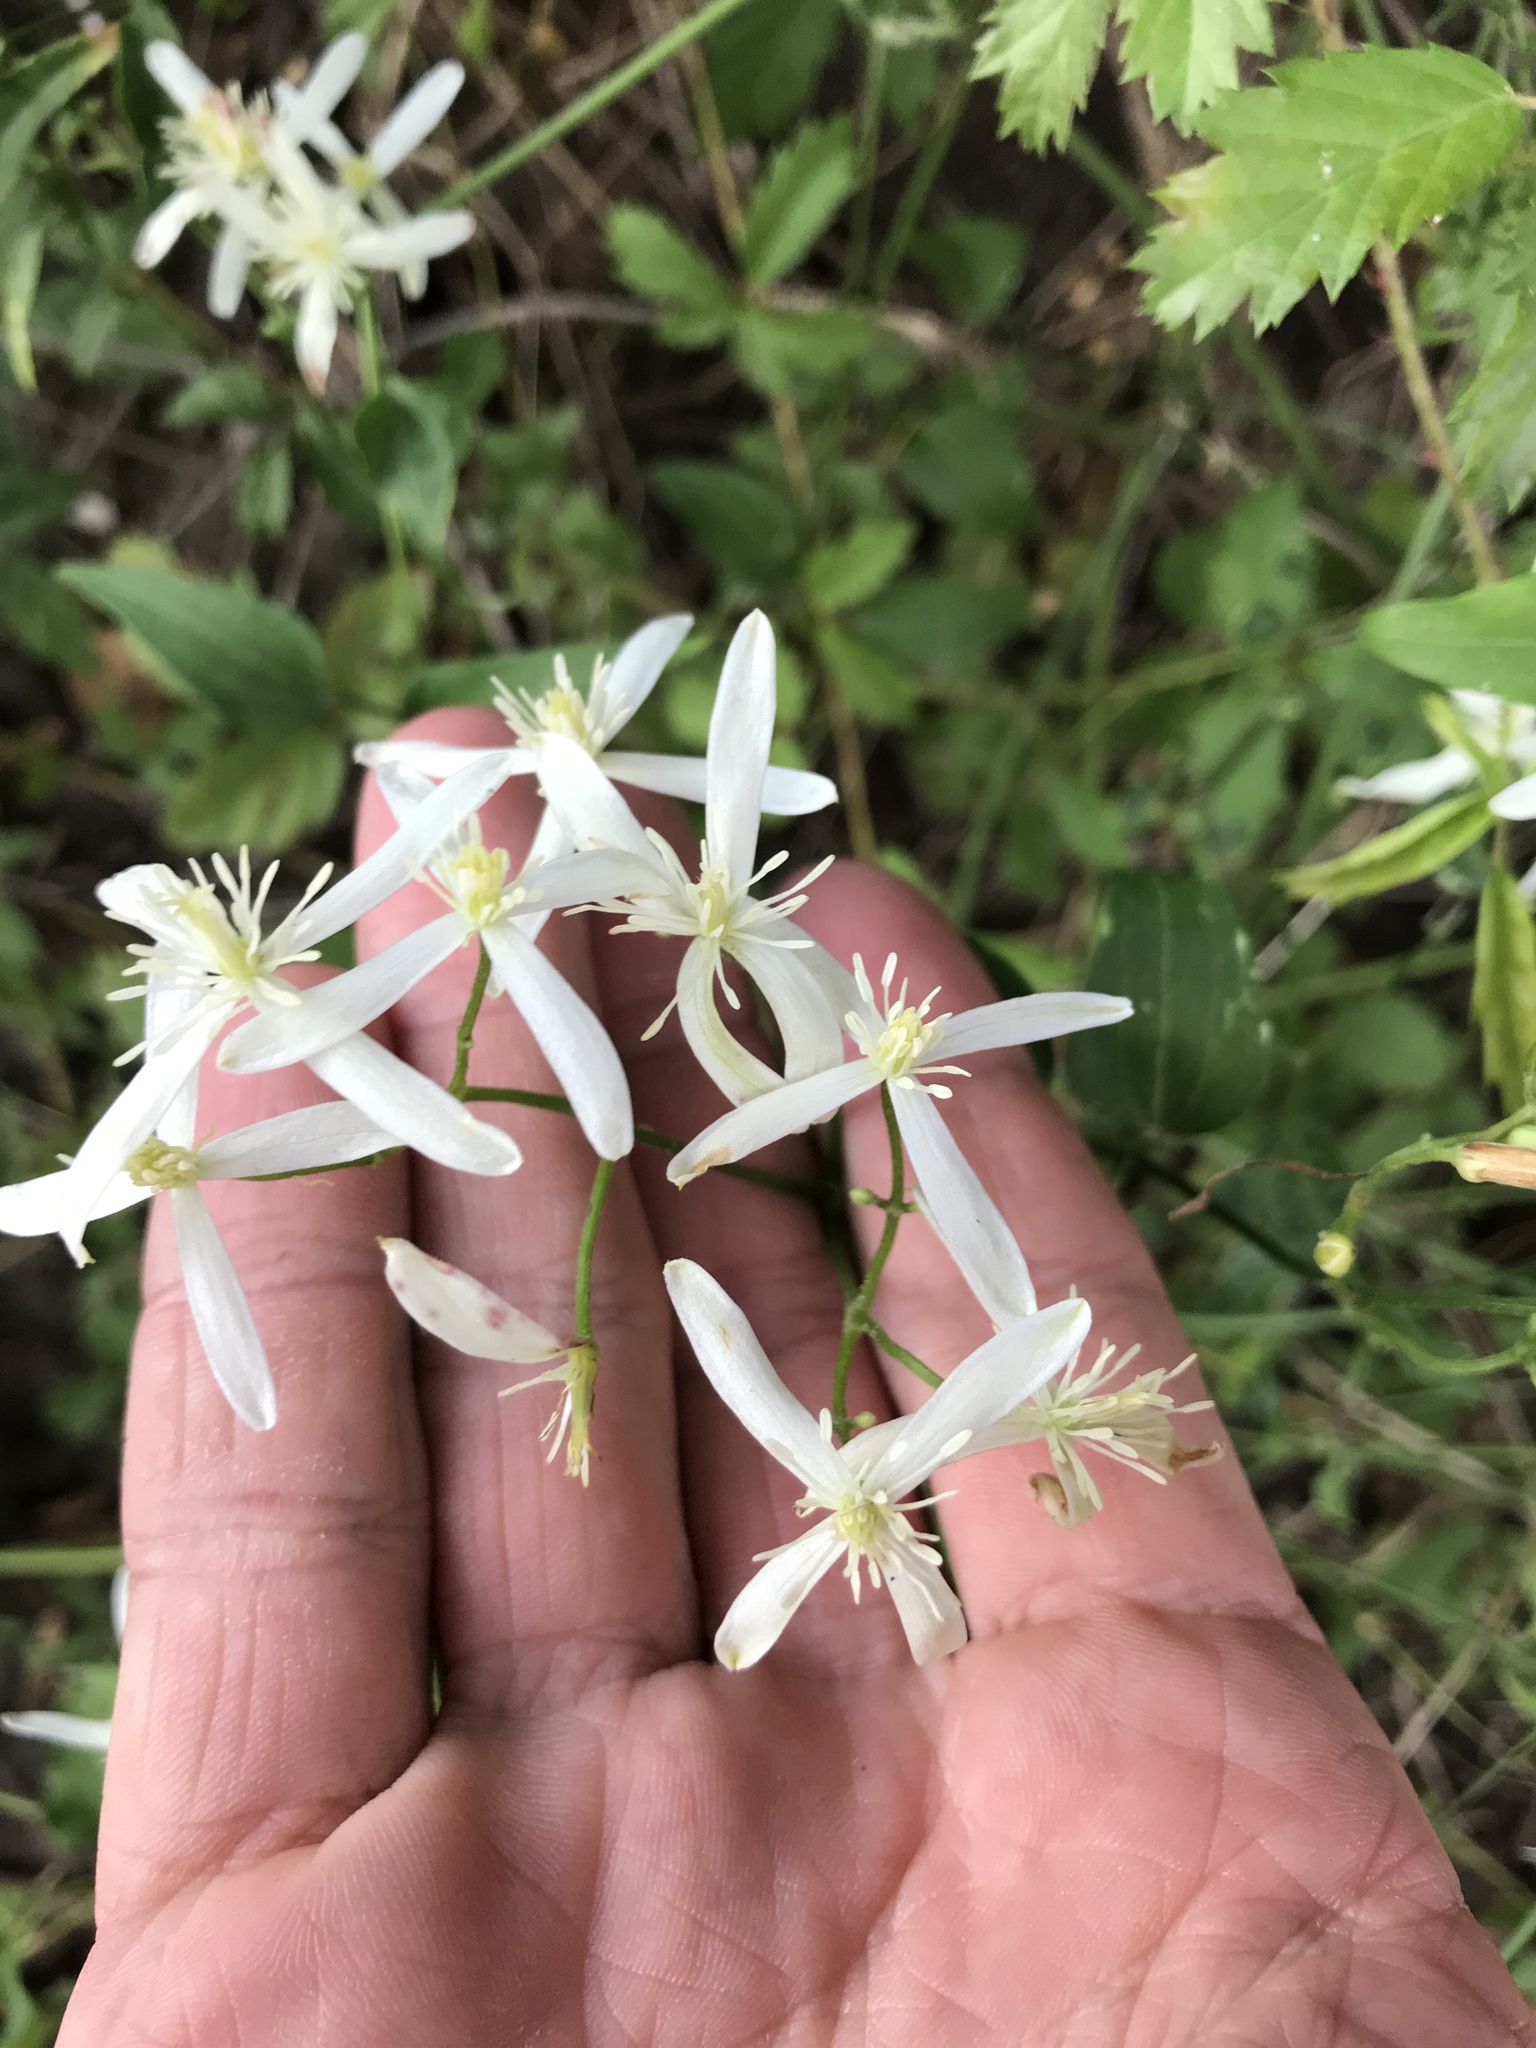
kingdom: Plantae
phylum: Tracheophyta
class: Magnoliopsida
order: Ranunculales
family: Ranunculaceae
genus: Clematis
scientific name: Clematis terniflora
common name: Sweet autumn clematis
